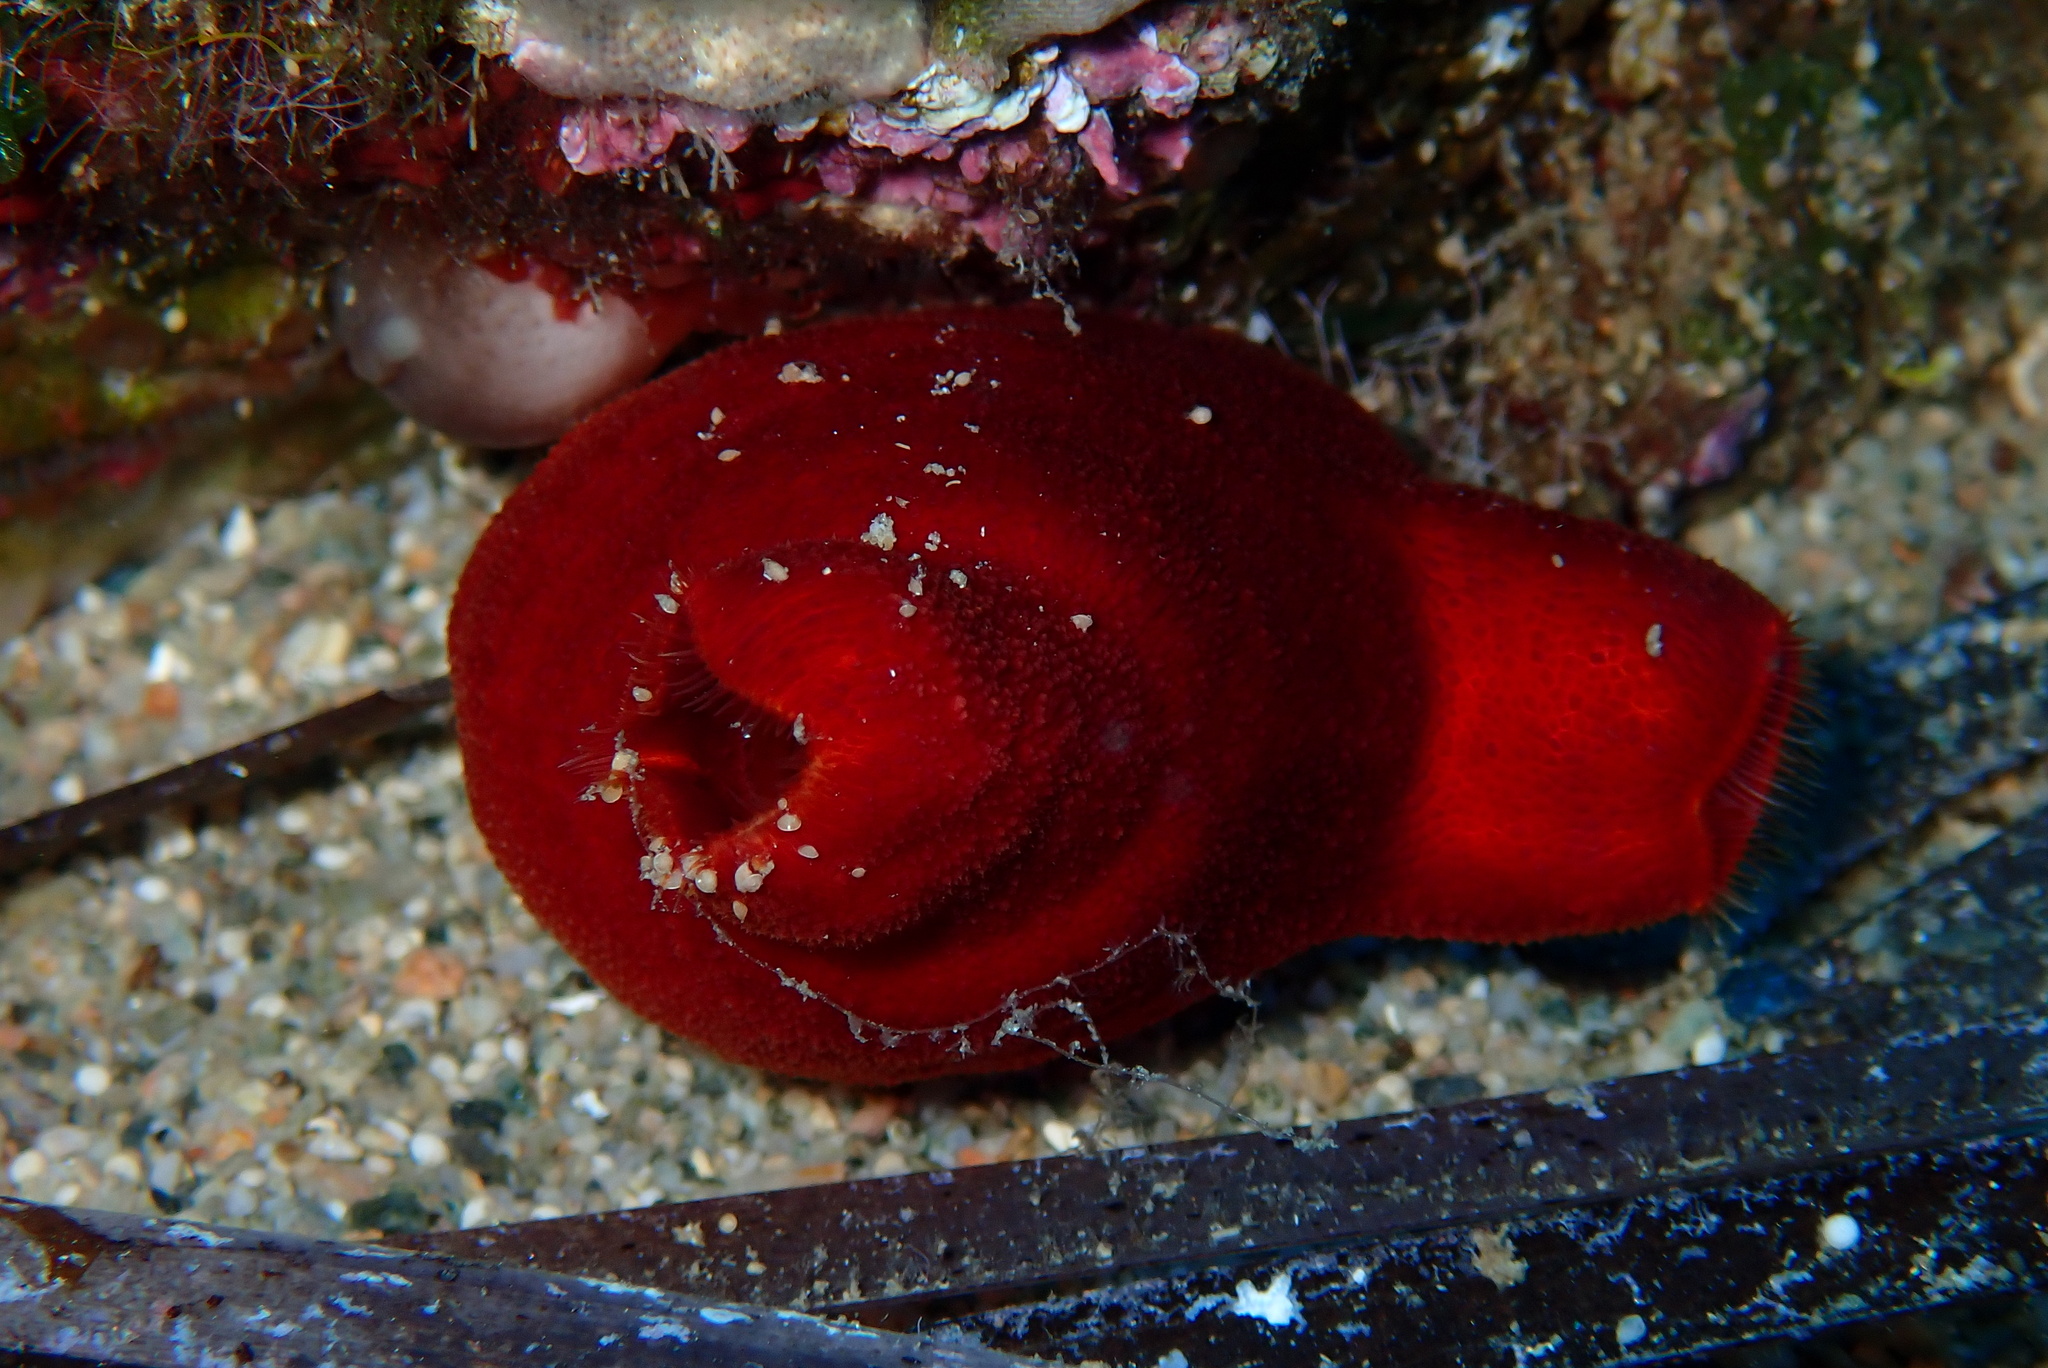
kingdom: Animalia
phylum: Chordata
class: Ascidiacea
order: Stolidobranchia
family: Pyuridae
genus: Halocynthia
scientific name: Halocynthia papillosa
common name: Red sea-squirt
